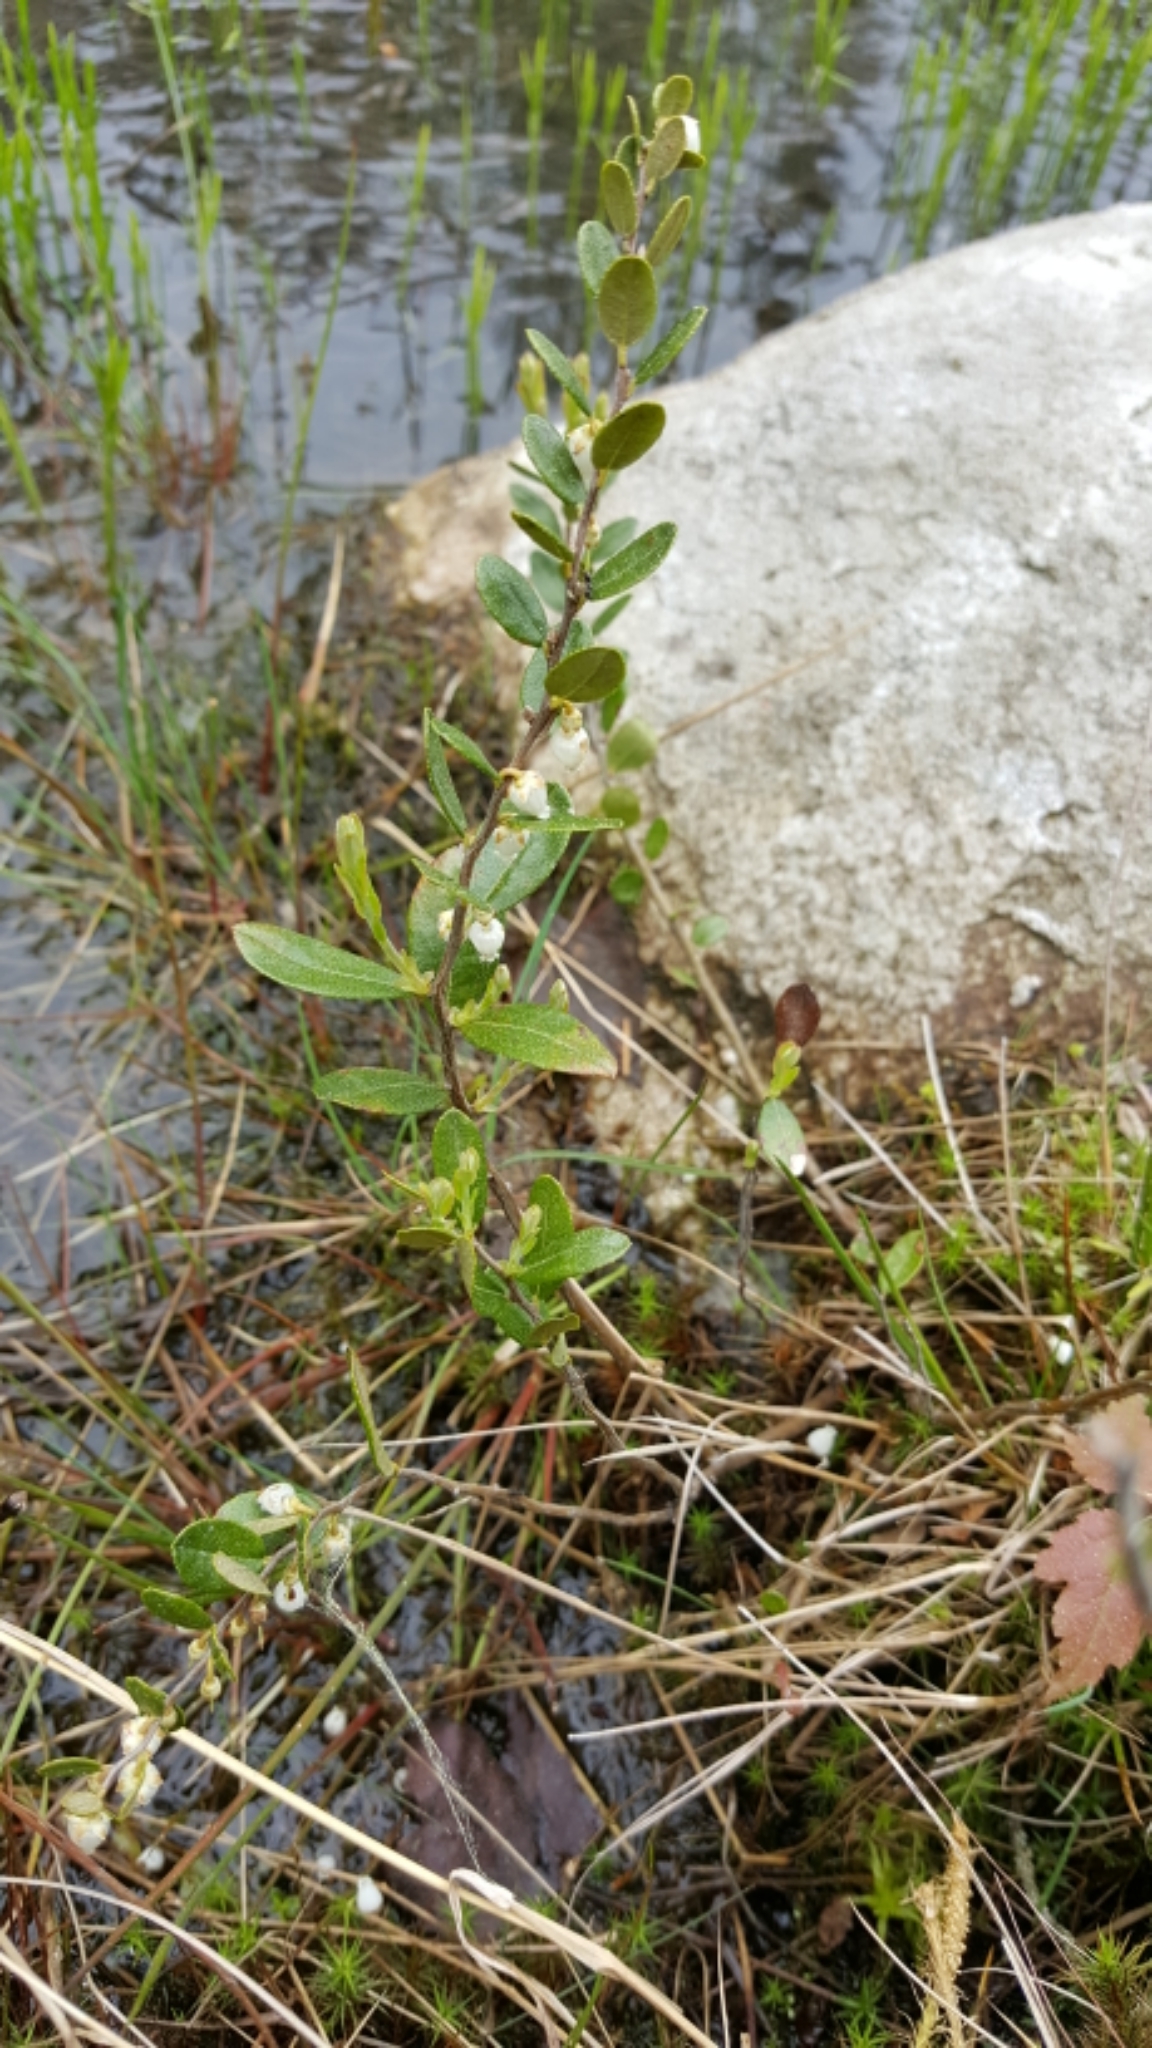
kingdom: Plantae
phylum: Tracheophyta
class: Magnoliopsida
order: Ericales
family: Ericaceae
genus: Chamaedaphne
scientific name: Chamaedaphne calyculata
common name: Leatherleaf
